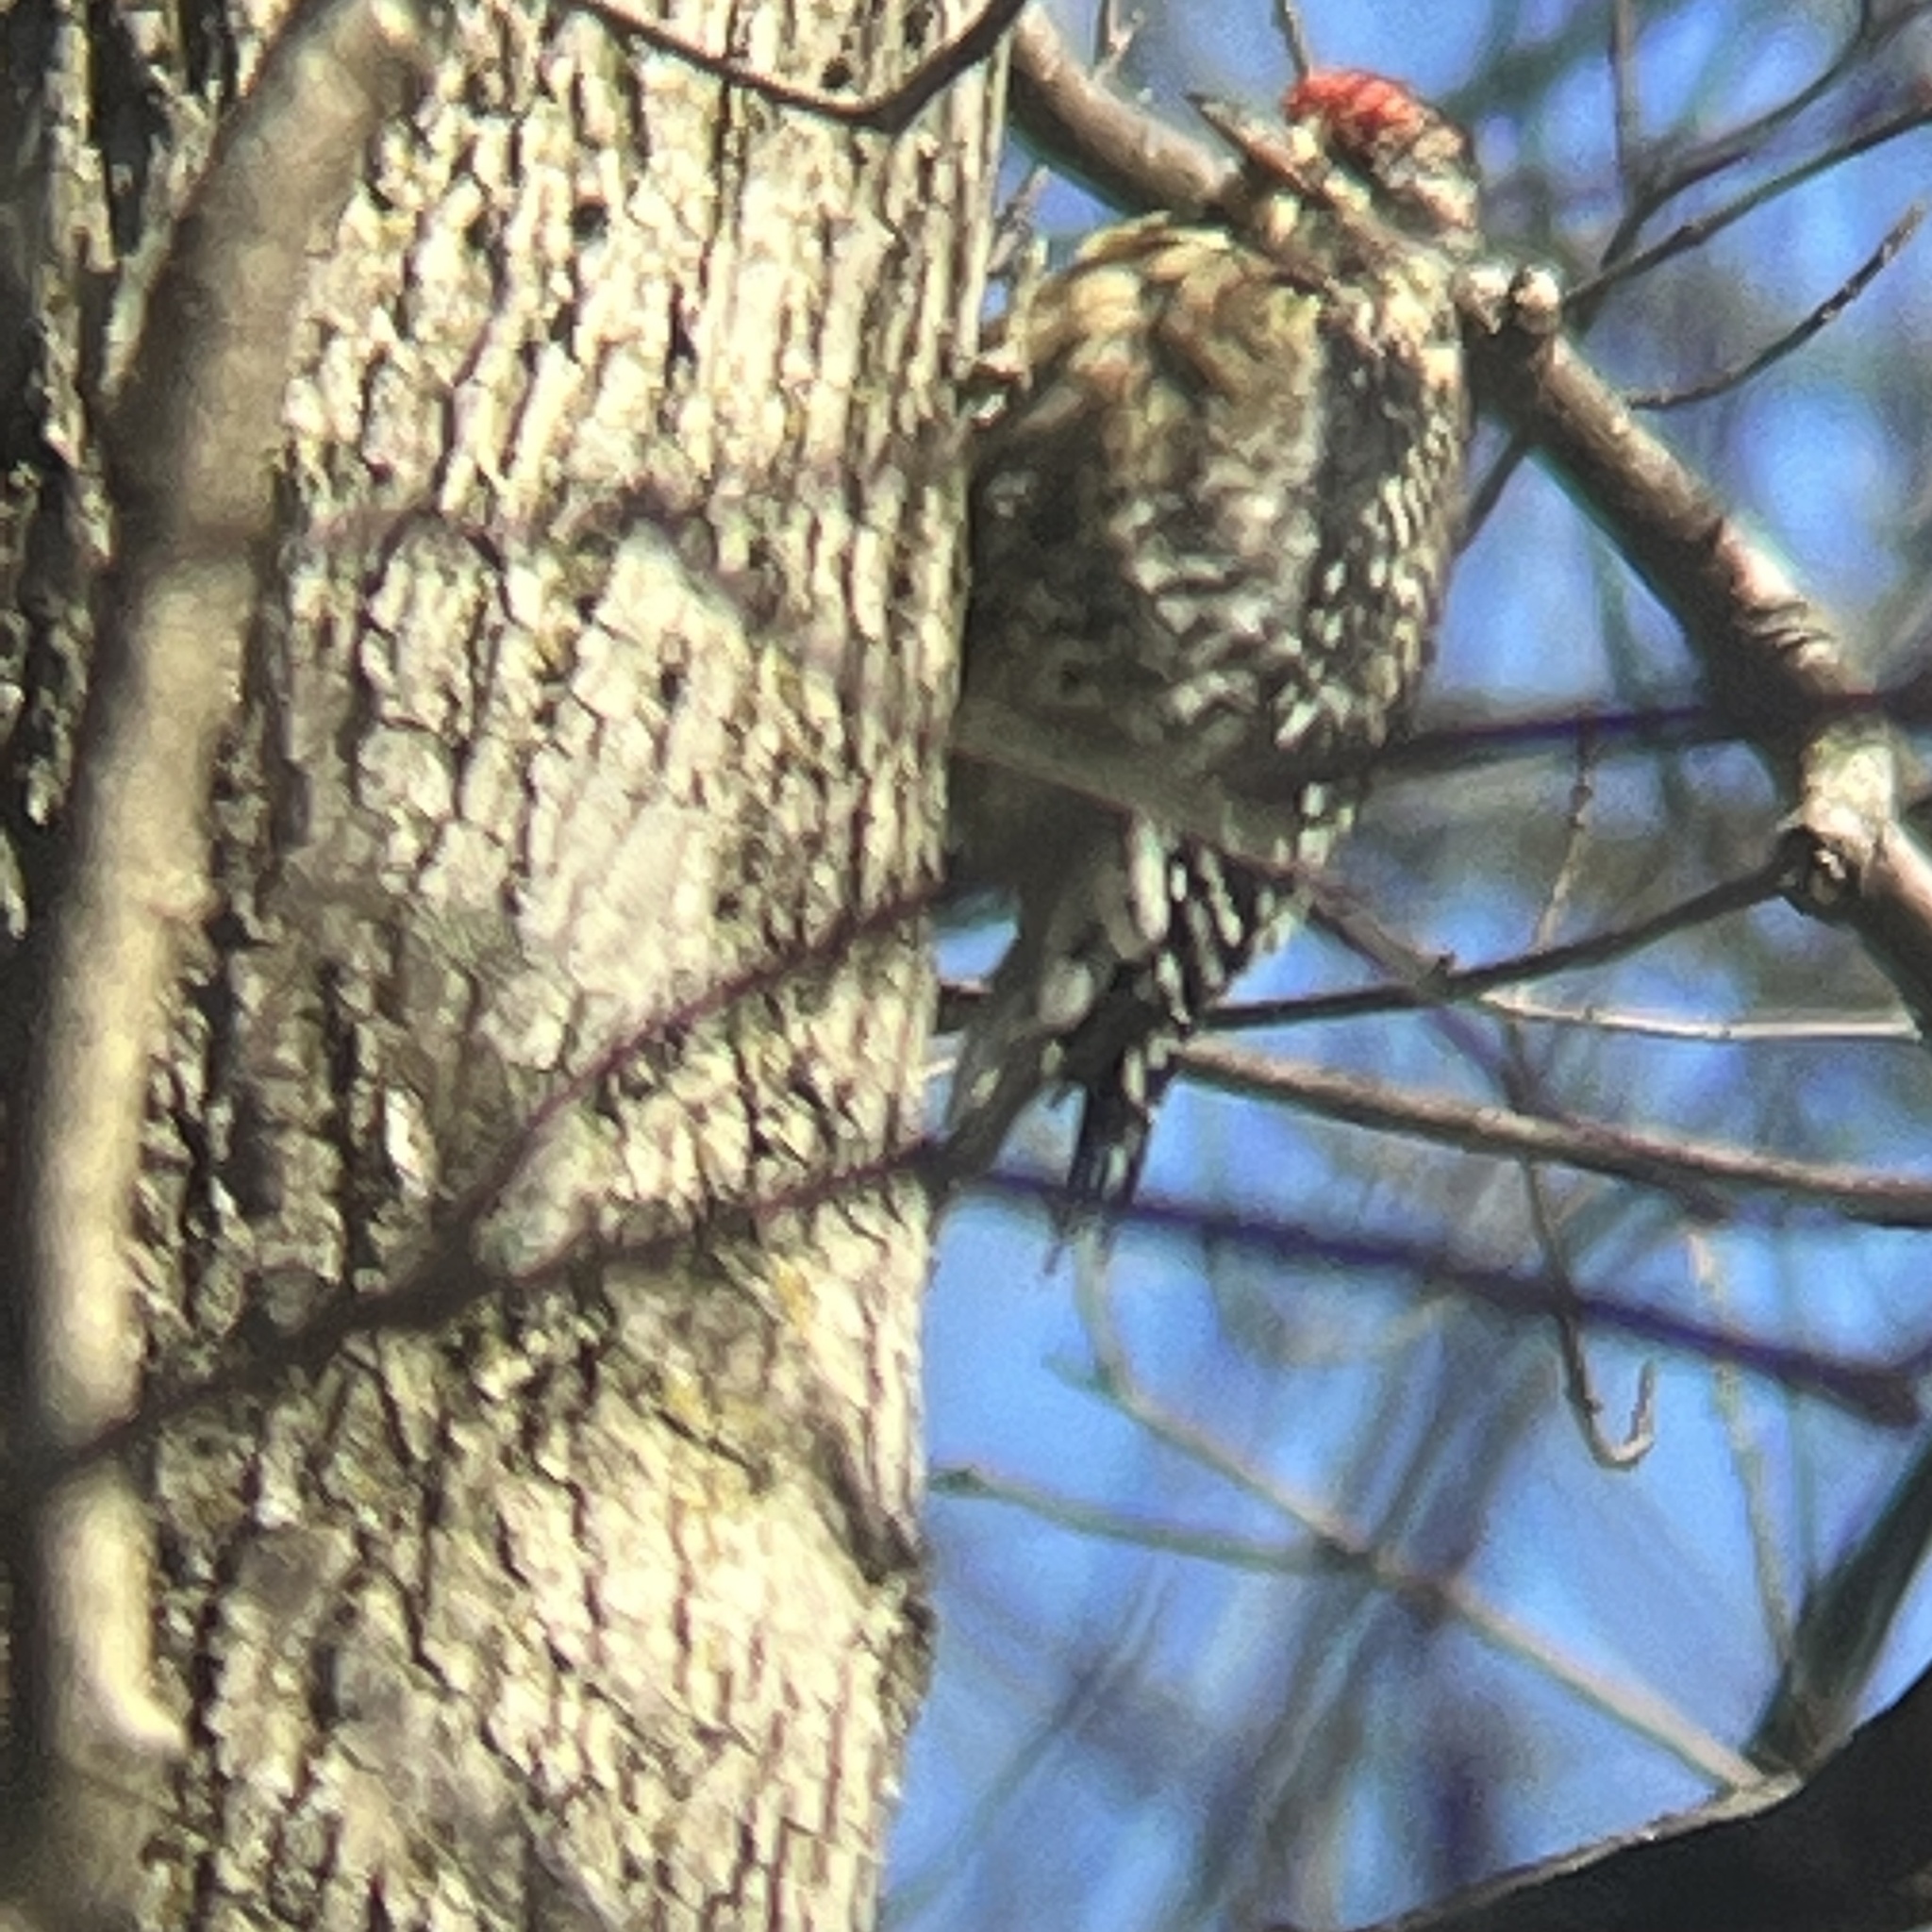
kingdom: Animalia
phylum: Chordata
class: Aves
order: Piciformes
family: Picidae
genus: Sphyrapicus
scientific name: Sphyrapicus varius
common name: Yellow-bellied sapsucker
